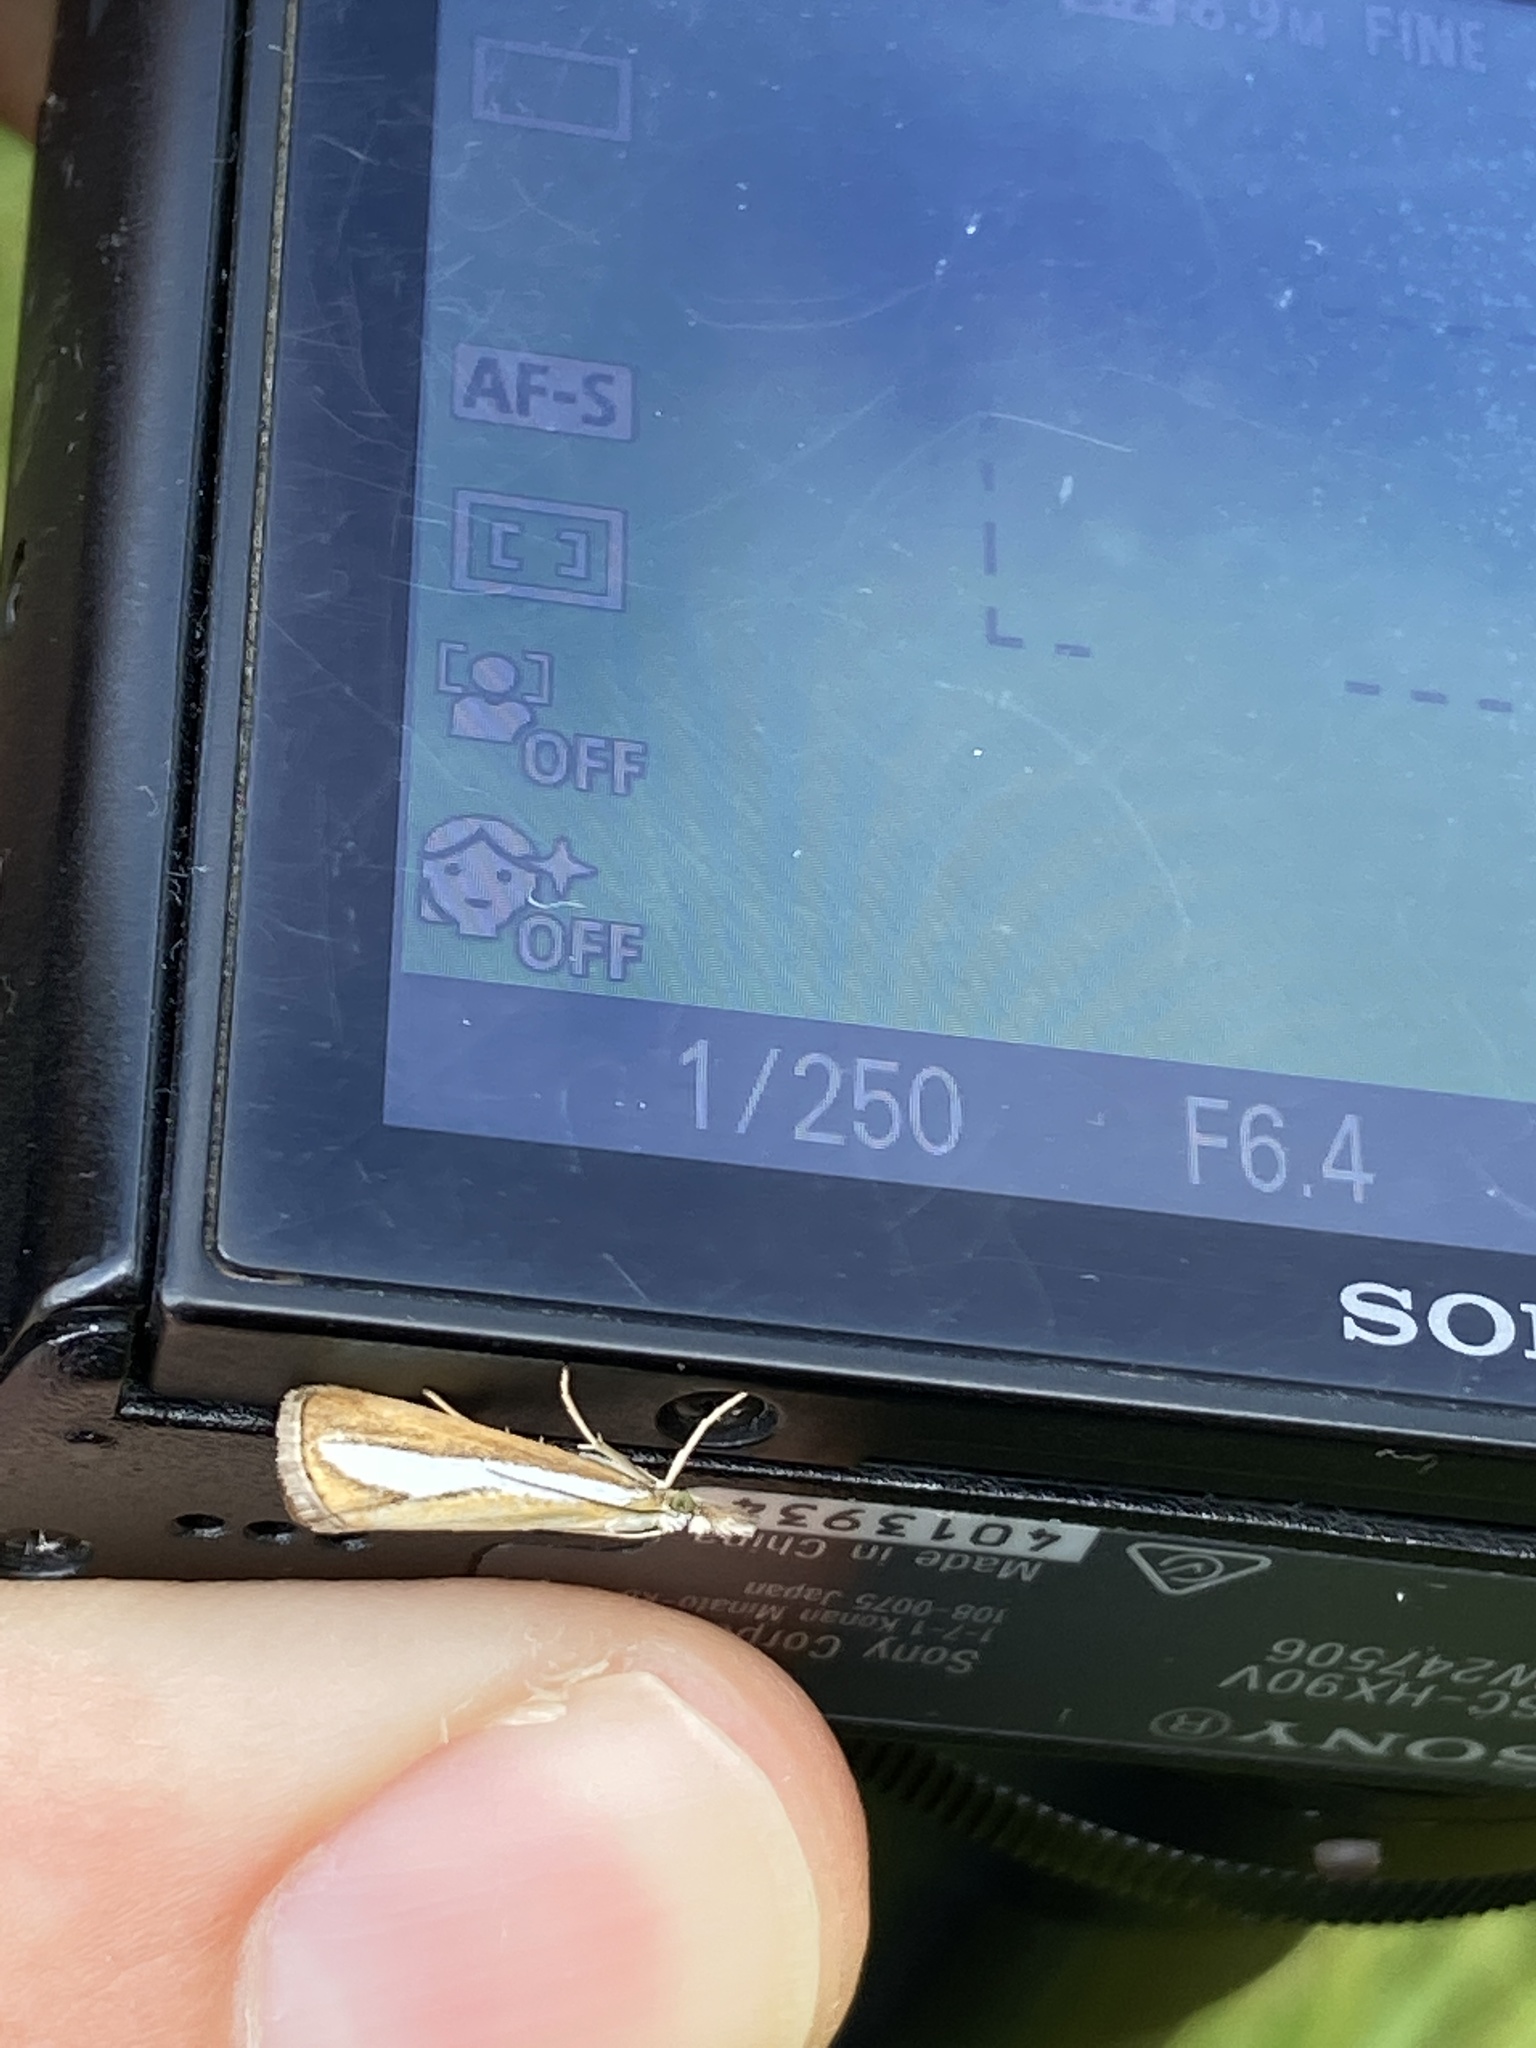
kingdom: Animalia
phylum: Arthropoda
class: Insecta
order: Lepidoptera
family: Crambidae
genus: Catoptria
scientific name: Catoptria margaritellus
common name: Pearl-band grass veneer
